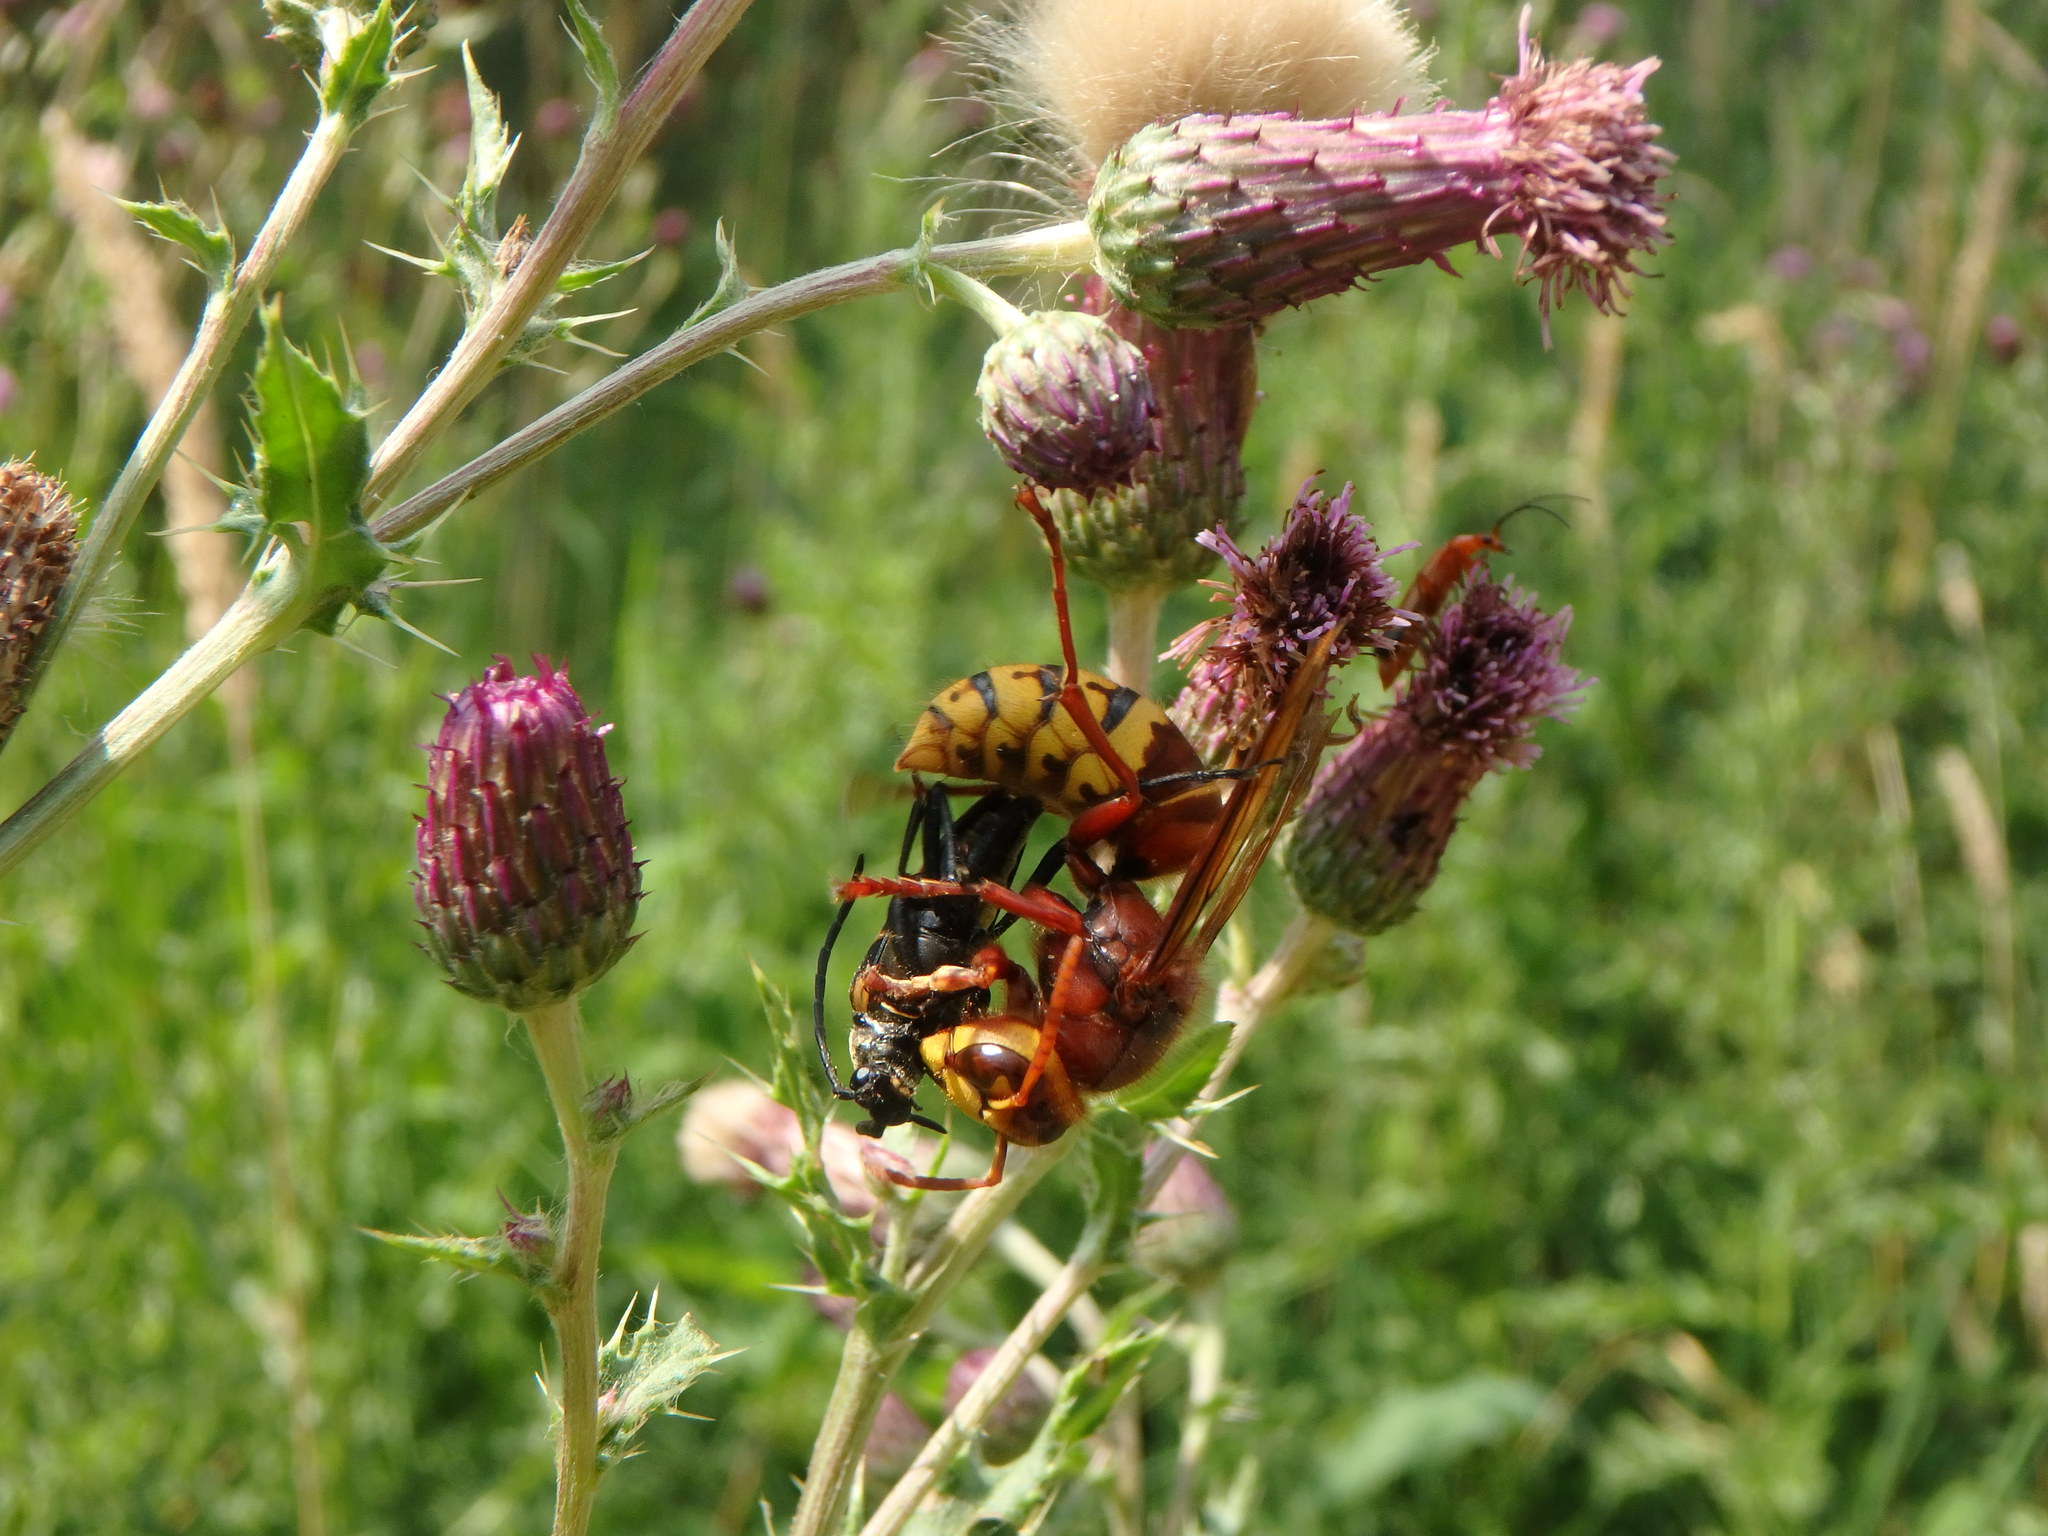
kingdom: Animalia
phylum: Arthropoda
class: Insecta
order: Hymenoptera
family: Vespidae
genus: Vespa
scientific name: Vespa crabro
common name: Hornet
